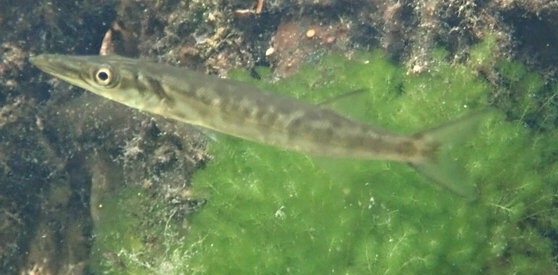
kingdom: Animalia
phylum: Chordata
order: Perciformes
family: Sphyraenidae
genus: Sphyraena
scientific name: Sphyraena barracuda
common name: Great barracuda
